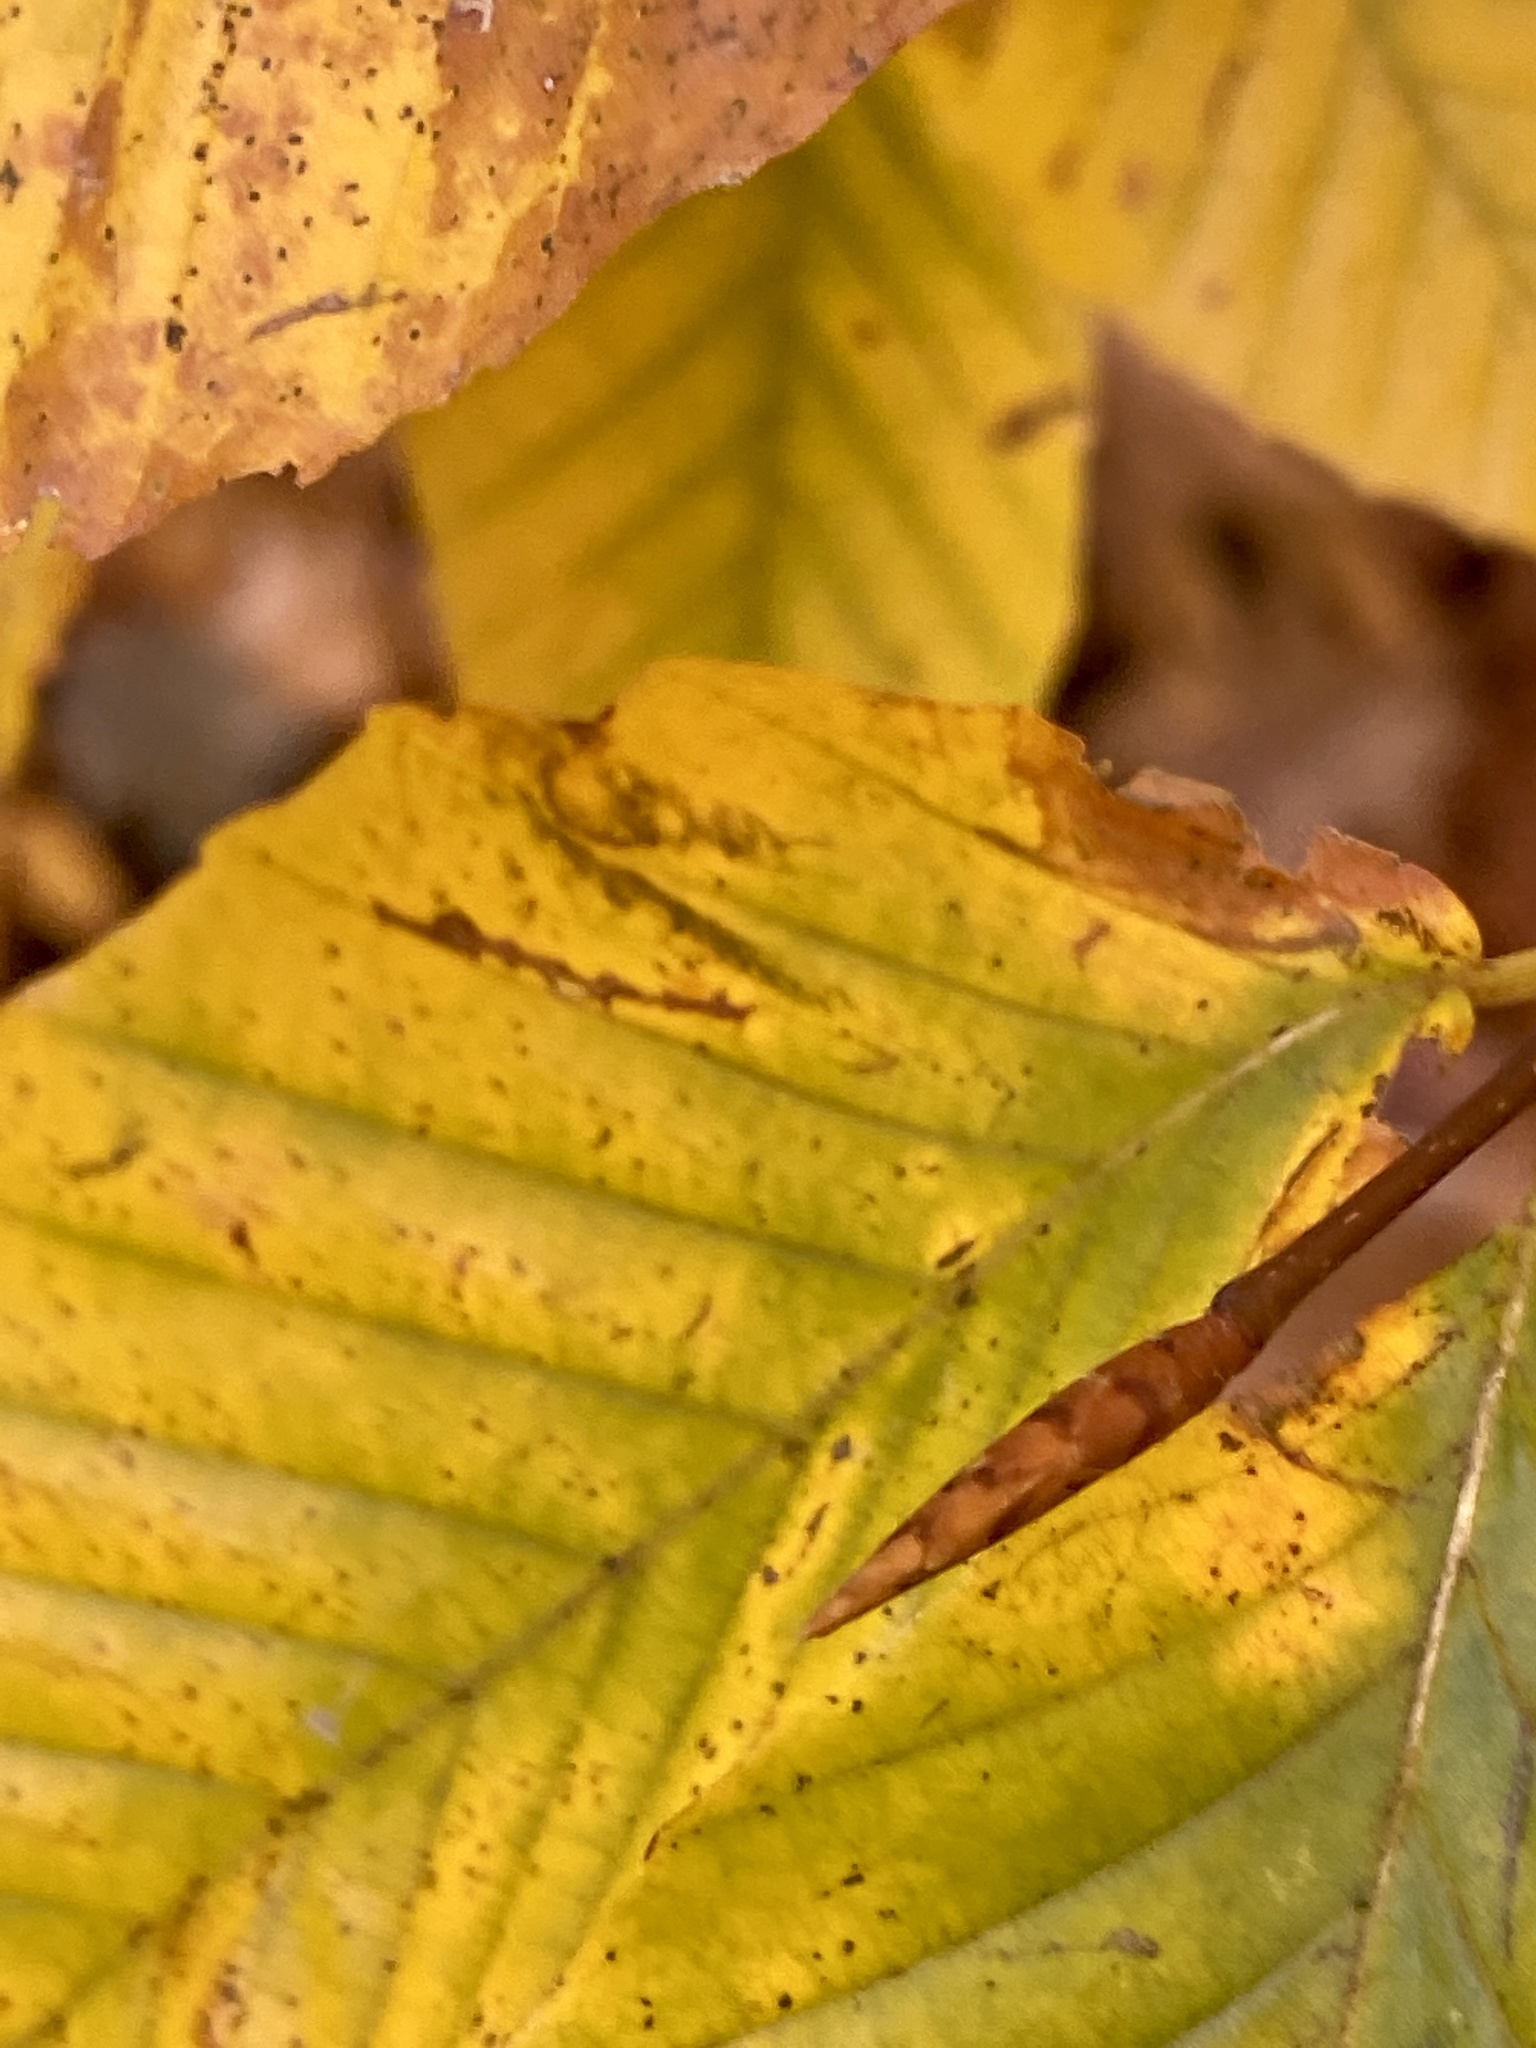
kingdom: Plantae
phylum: Tracheophyta
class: Magnoliopsida
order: Fagales
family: Fagaceae
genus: Fagus
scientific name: Fagus grandifolia
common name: American beech
